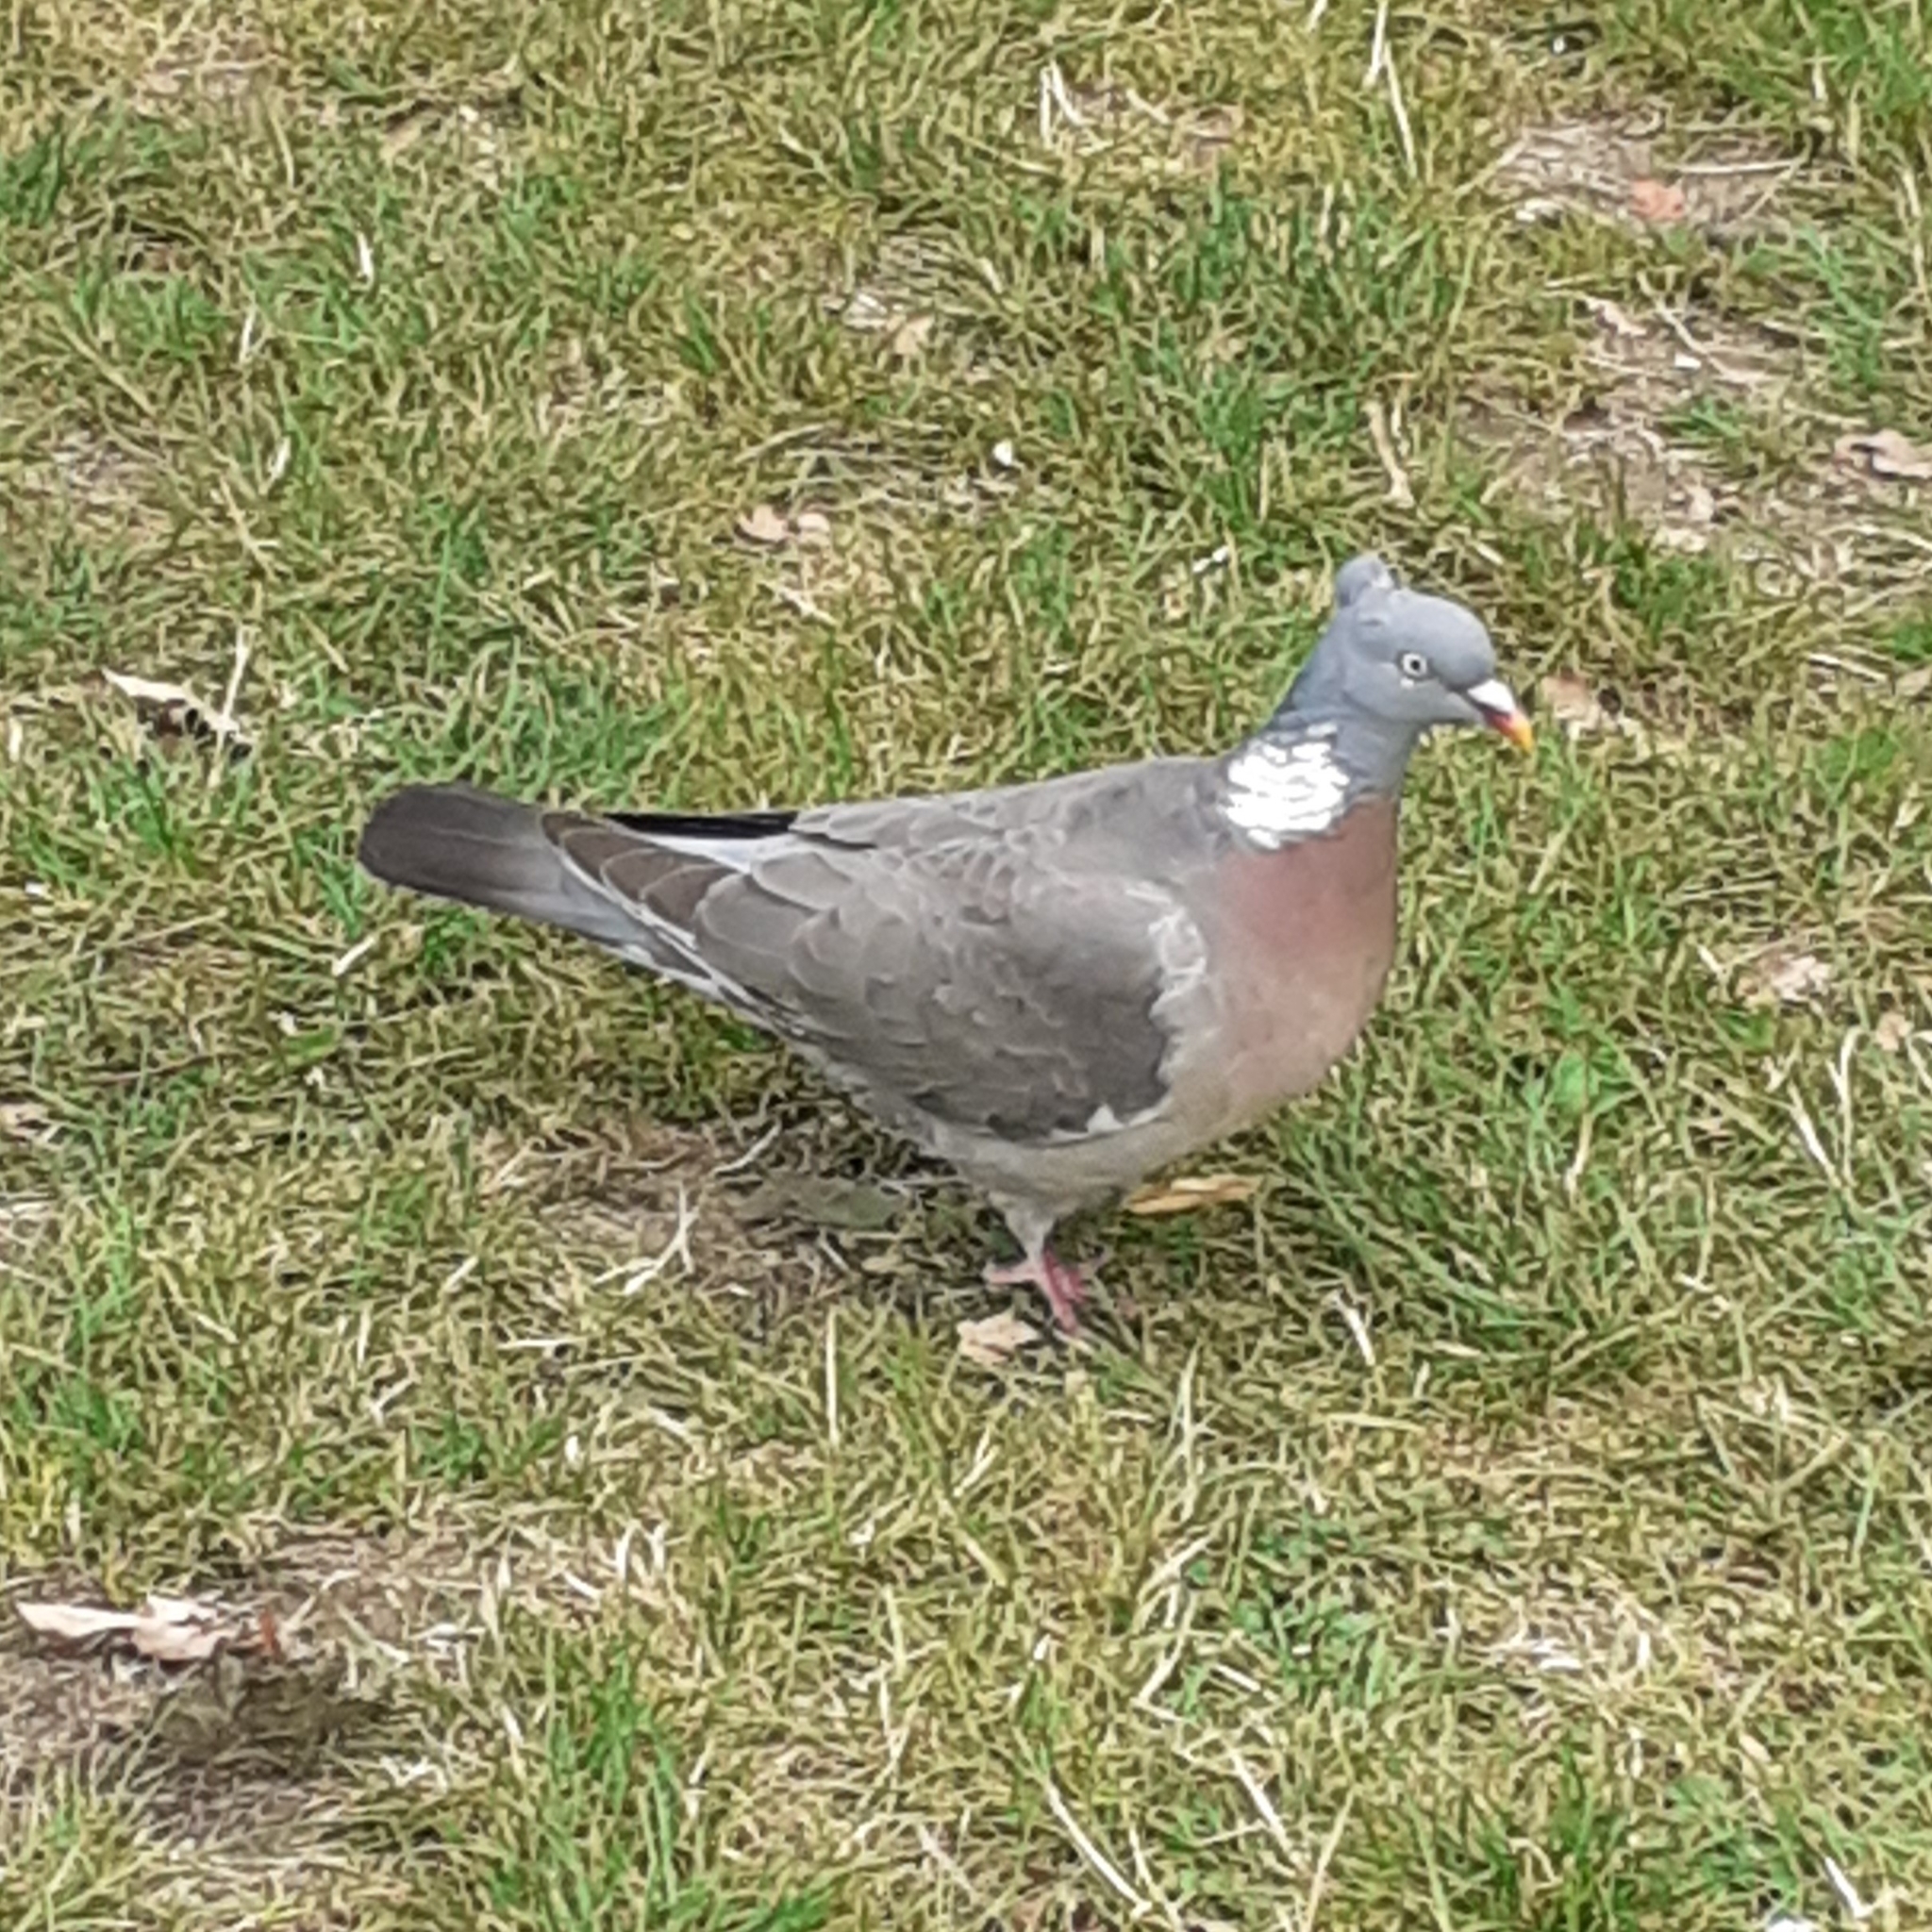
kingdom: Animalia
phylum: Chordata
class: Aves
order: Columbiformes
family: Columbidae
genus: Columba
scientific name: Columba palumbus
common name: Common wood pigeon
